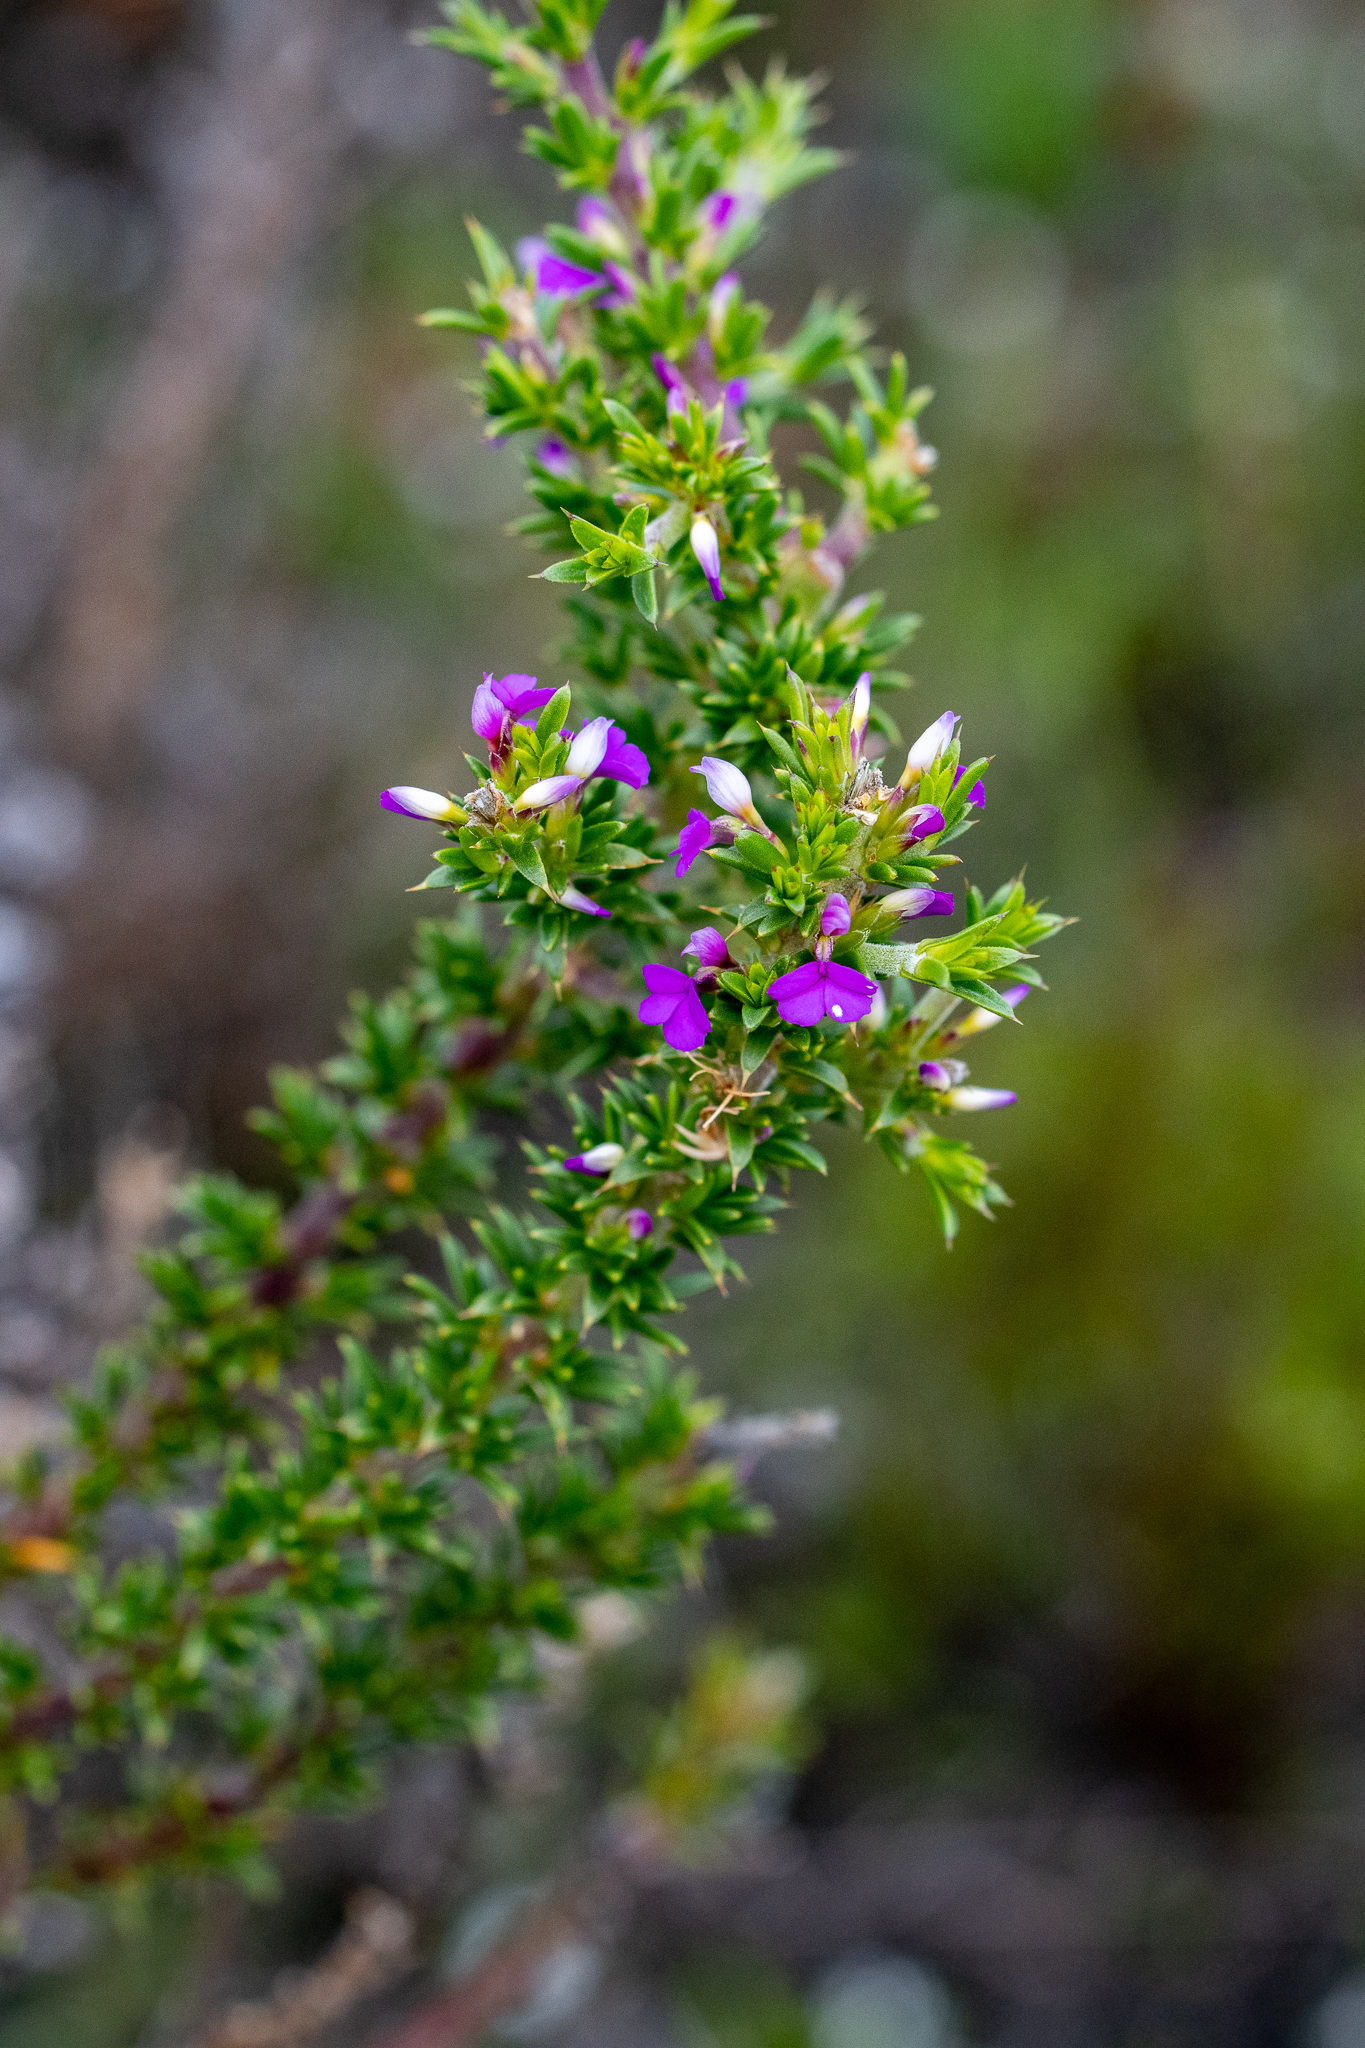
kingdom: Plantae
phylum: Tracheophyta
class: Magnoliopsida
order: Fabales
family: Polygalaceae
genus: Muraltia
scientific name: Muraltia heisteria
